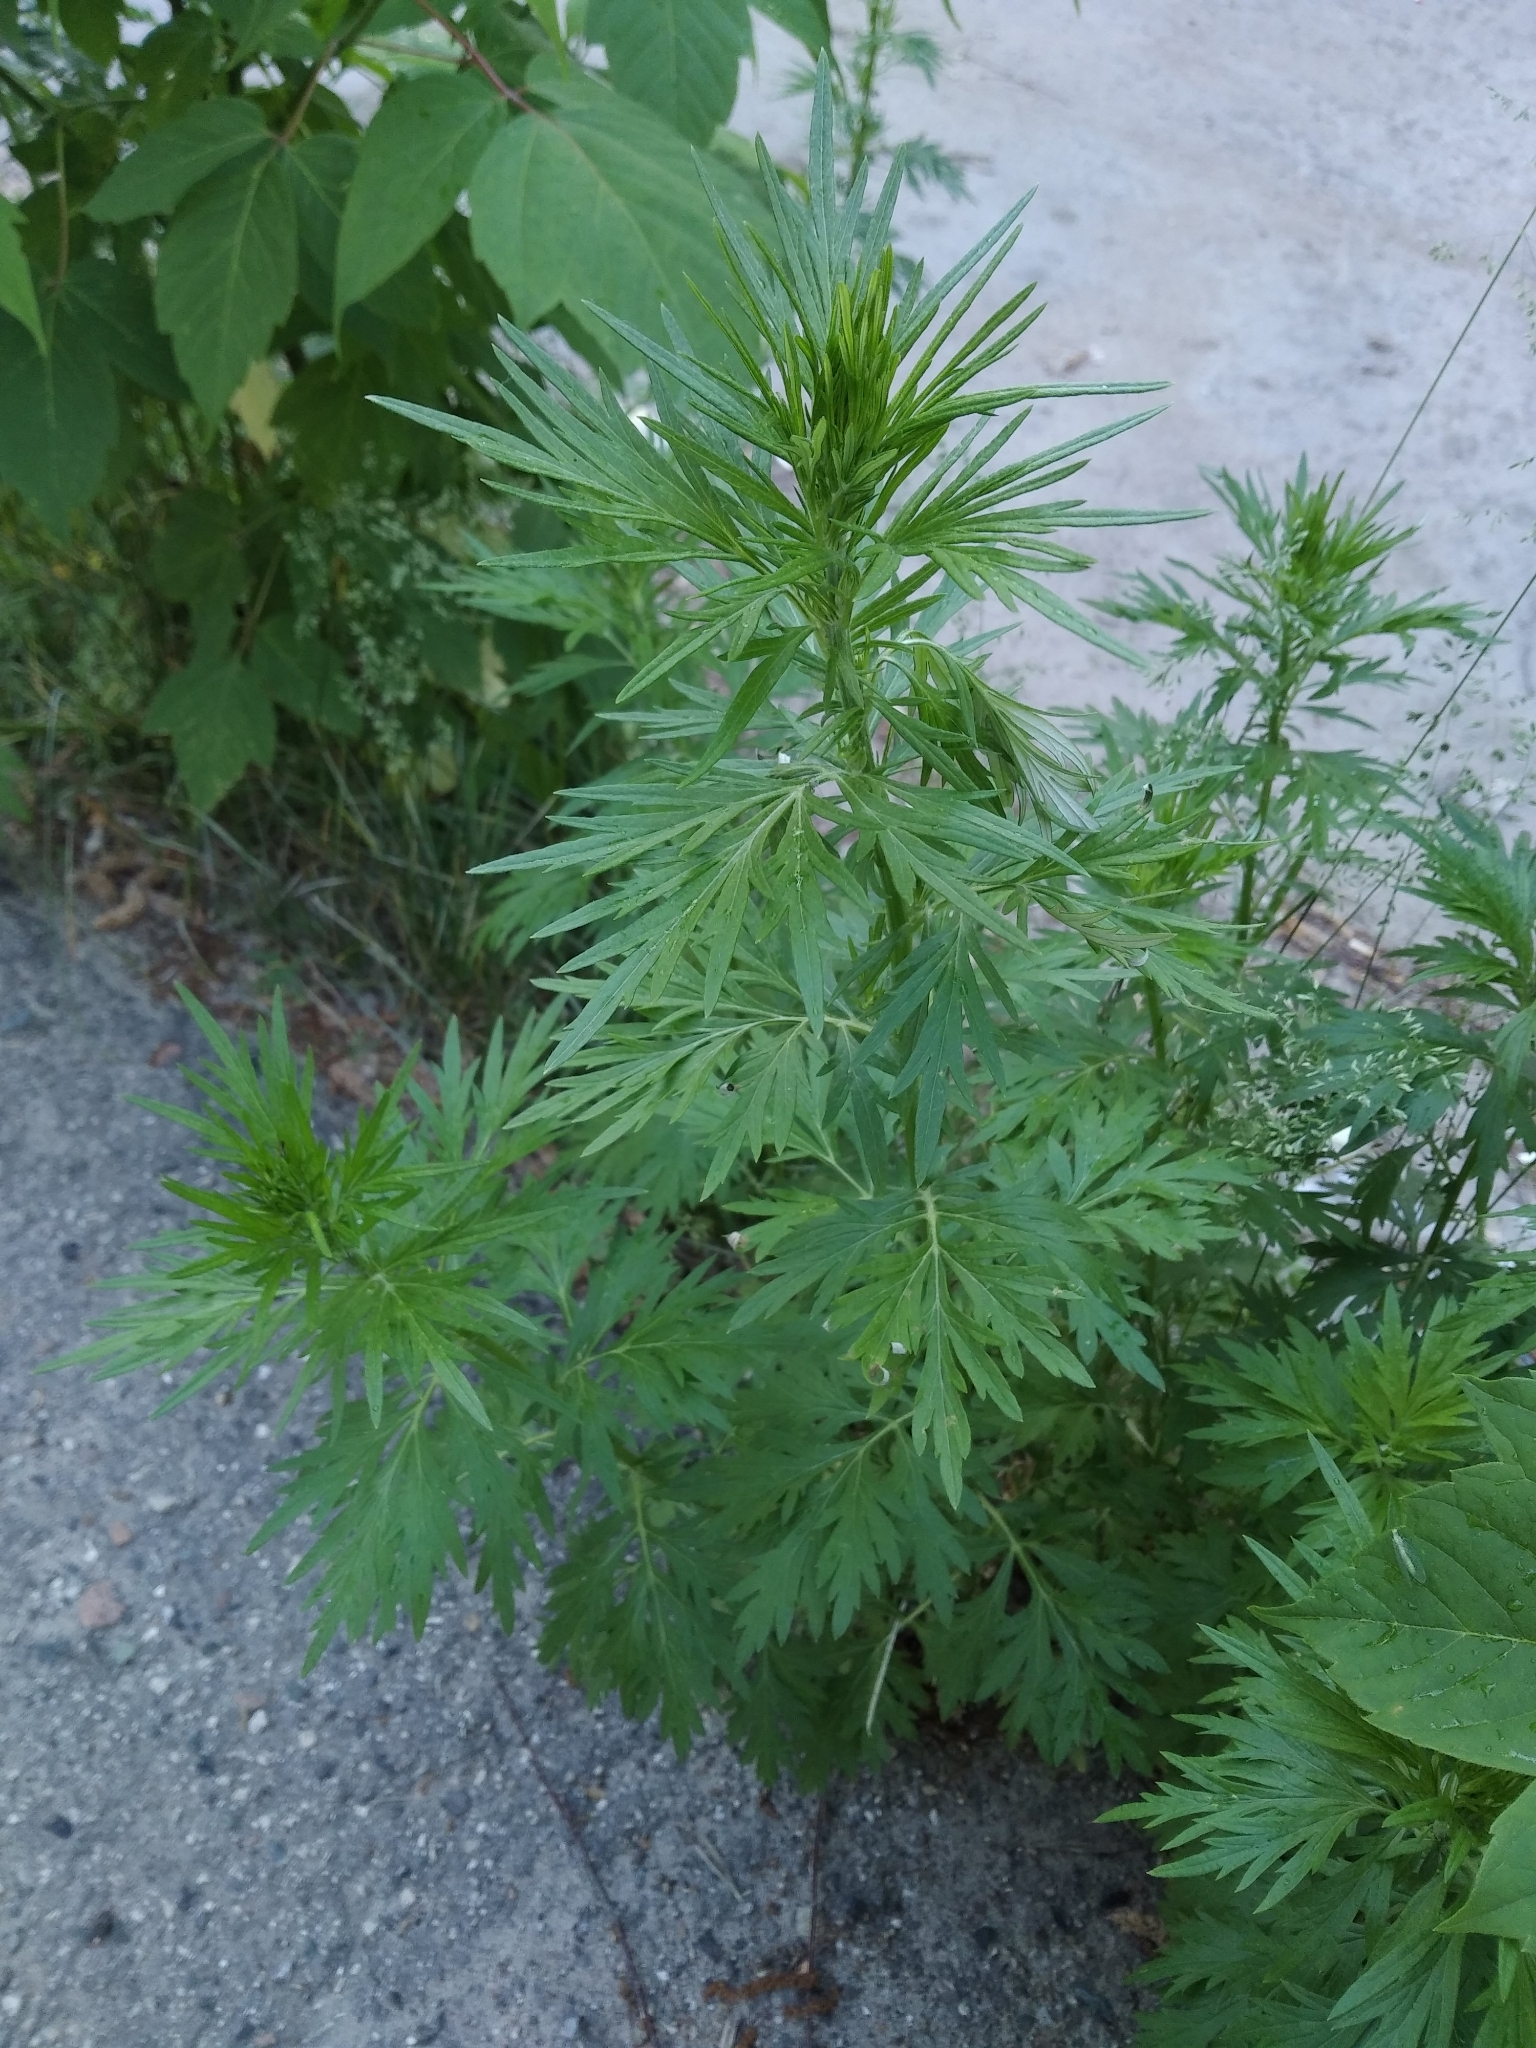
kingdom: Plantae
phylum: Tracheophyta
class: Magnoliopsida
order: Asterales
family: Asteraceae
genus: Artemisia
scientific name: Artemisia vulgaris
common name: Mugwort
